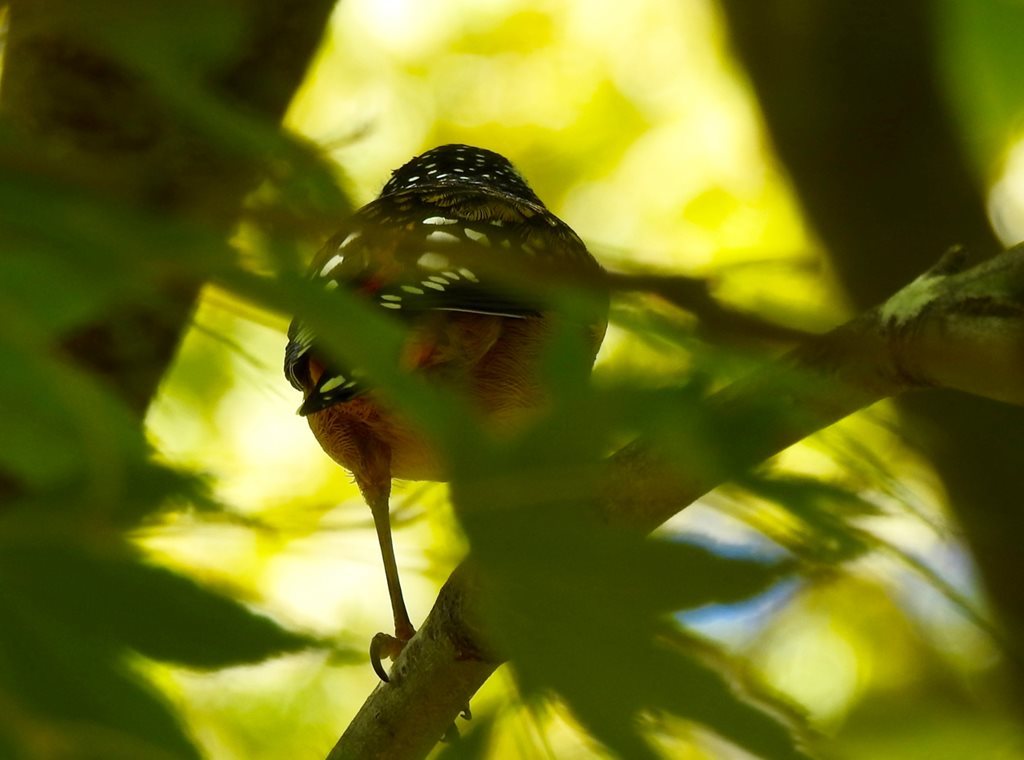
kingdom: Animalia
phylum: Chordata
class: Aves
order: Passeriformes
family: Pardalotidae
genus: Pardalotus
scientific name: Pardalotus punctatus
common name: Spotted pardalote
